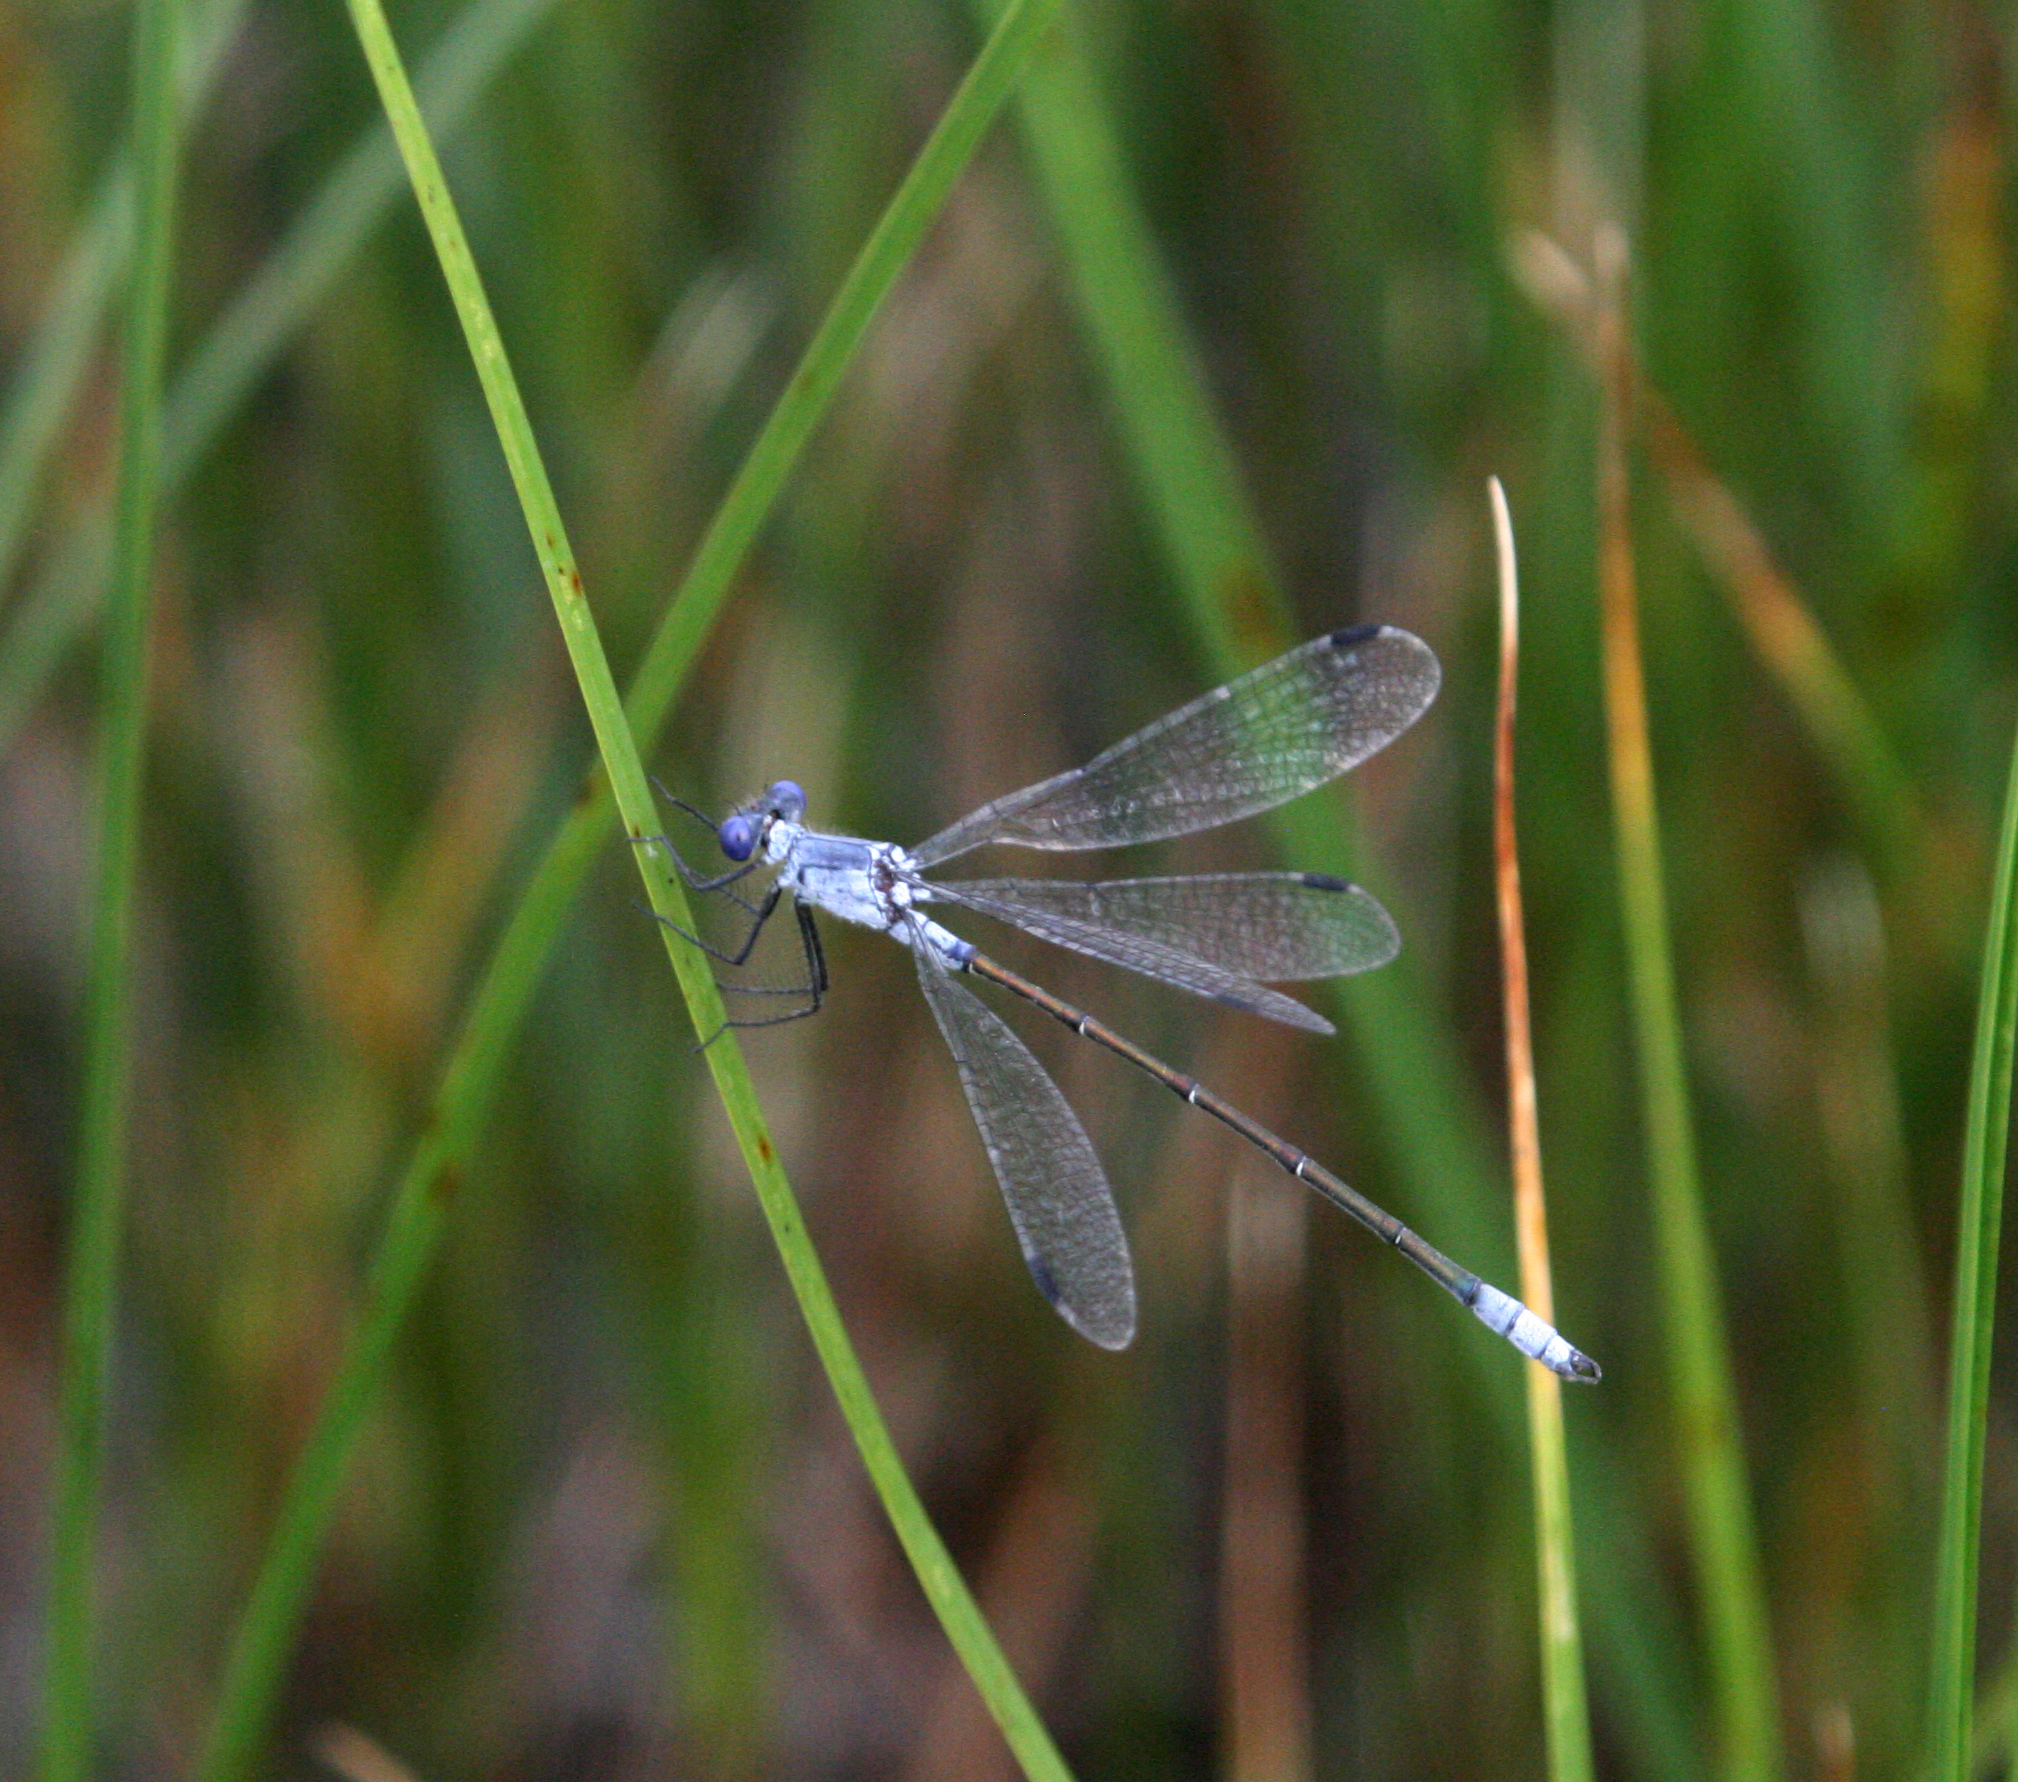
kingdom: Animalia
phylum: Arthropoda
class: Insecta
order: Odonata
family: Lestidae
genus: Lestes
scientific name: Lestes macrostigma
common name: Dark spreadwing
